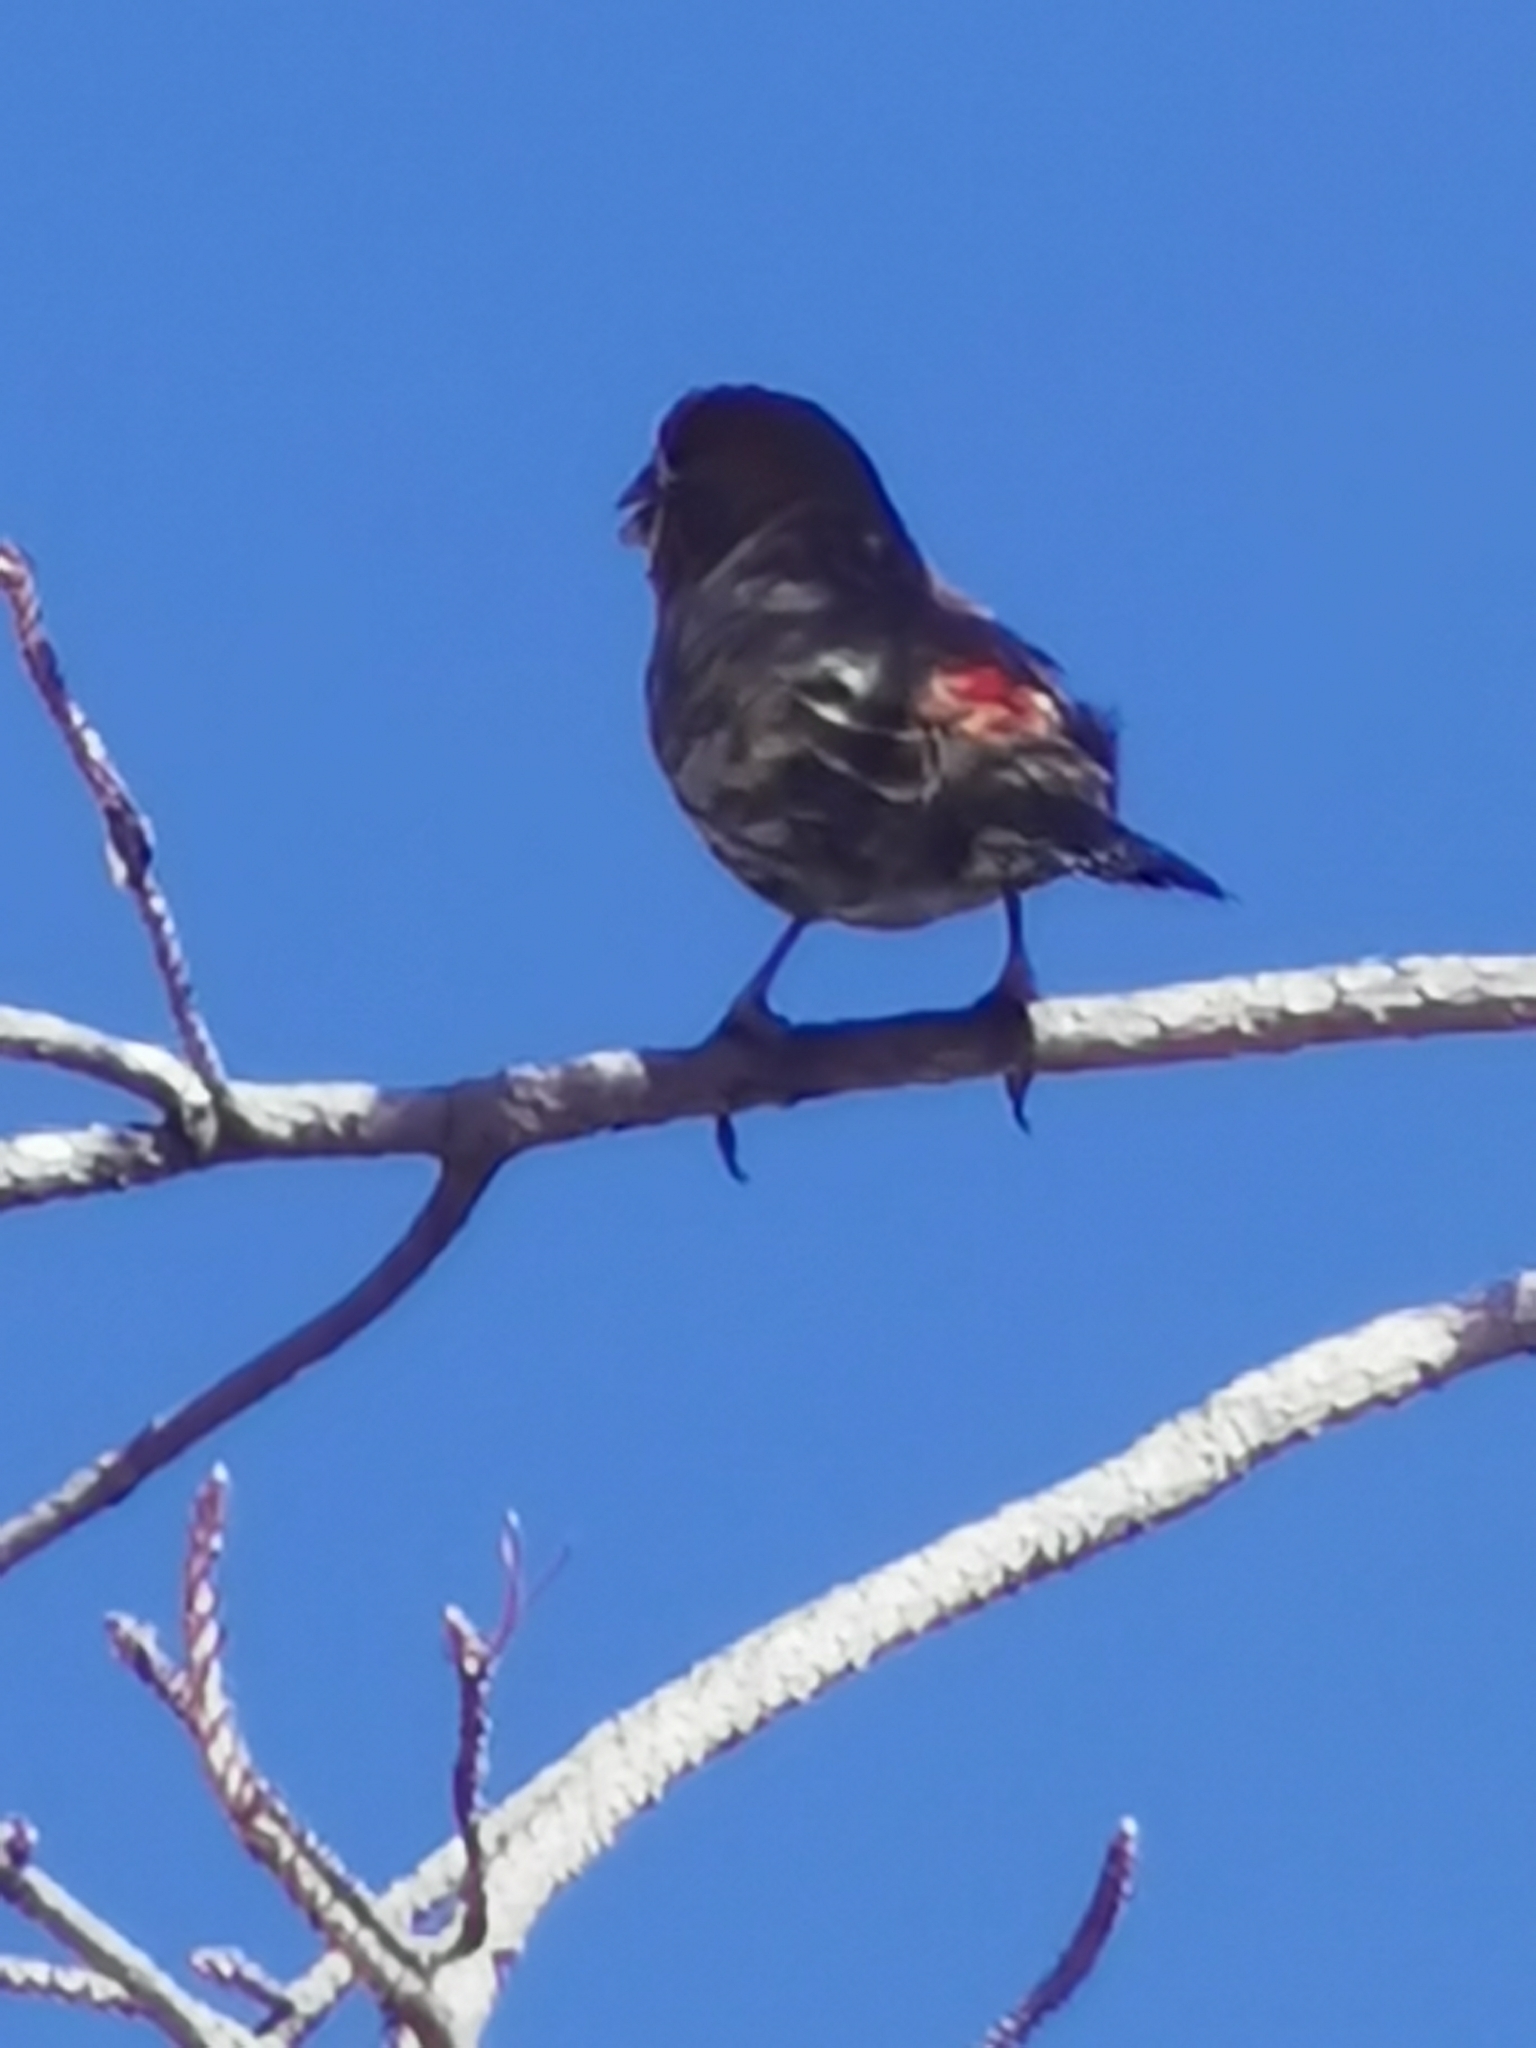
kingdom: Animalia
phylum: Chordata
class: Aves
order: Passeriformes
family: Fringillidae
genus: Haemorhous
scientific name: Haemorhous mexicanus
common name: House finch
